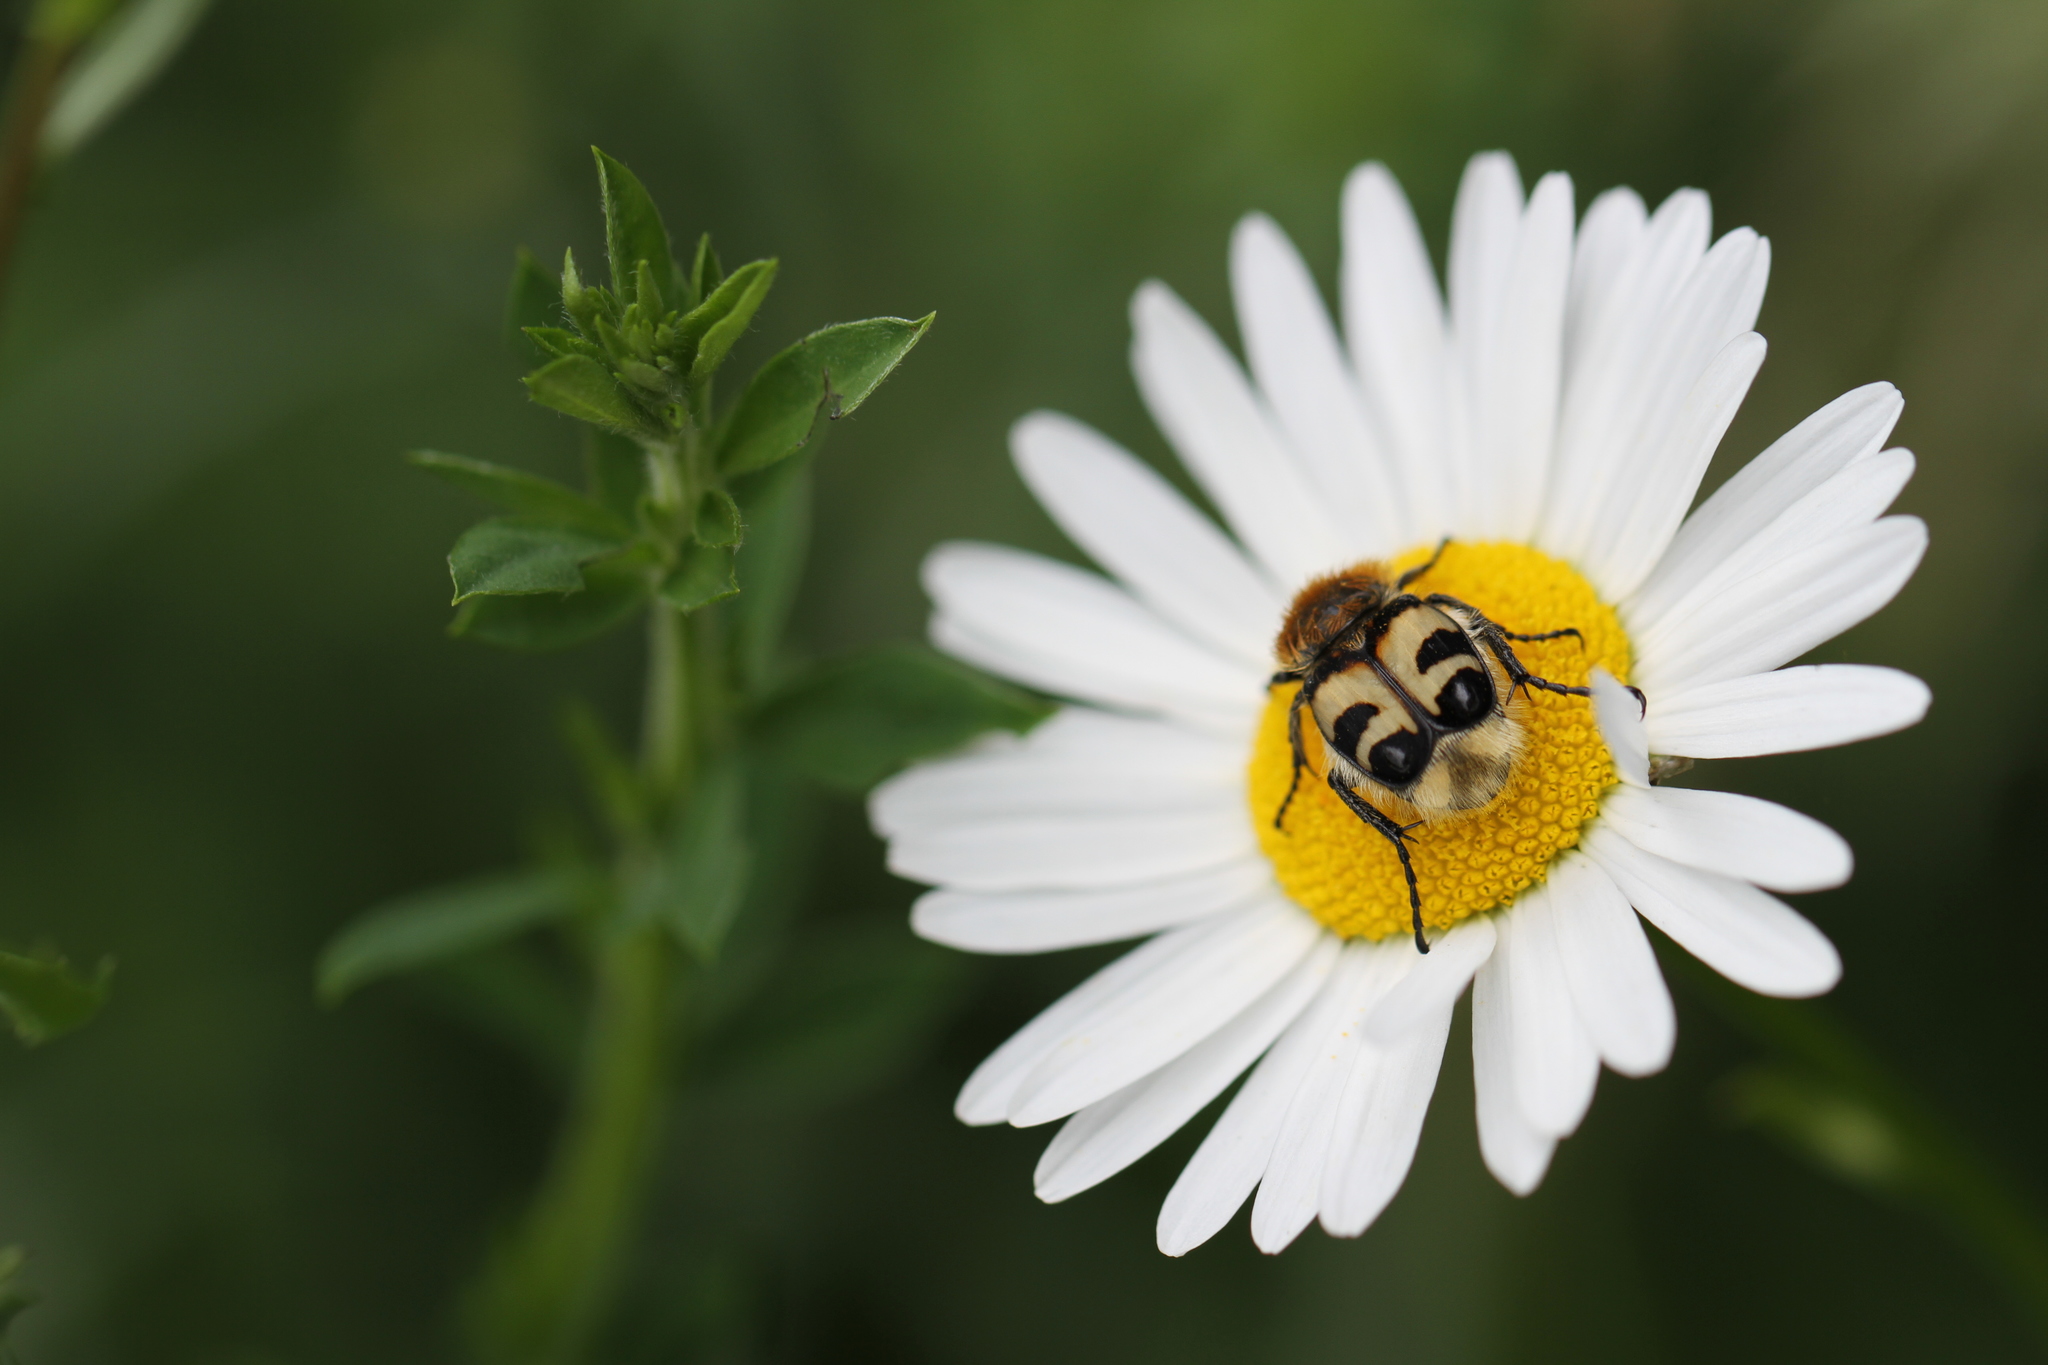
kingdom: Animalia
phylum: Arthropoda
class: Insecta
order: Coleoptera
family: Scarabaeidae
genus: Trichius
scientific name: Trichius fasciatus
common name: Bee beetle
